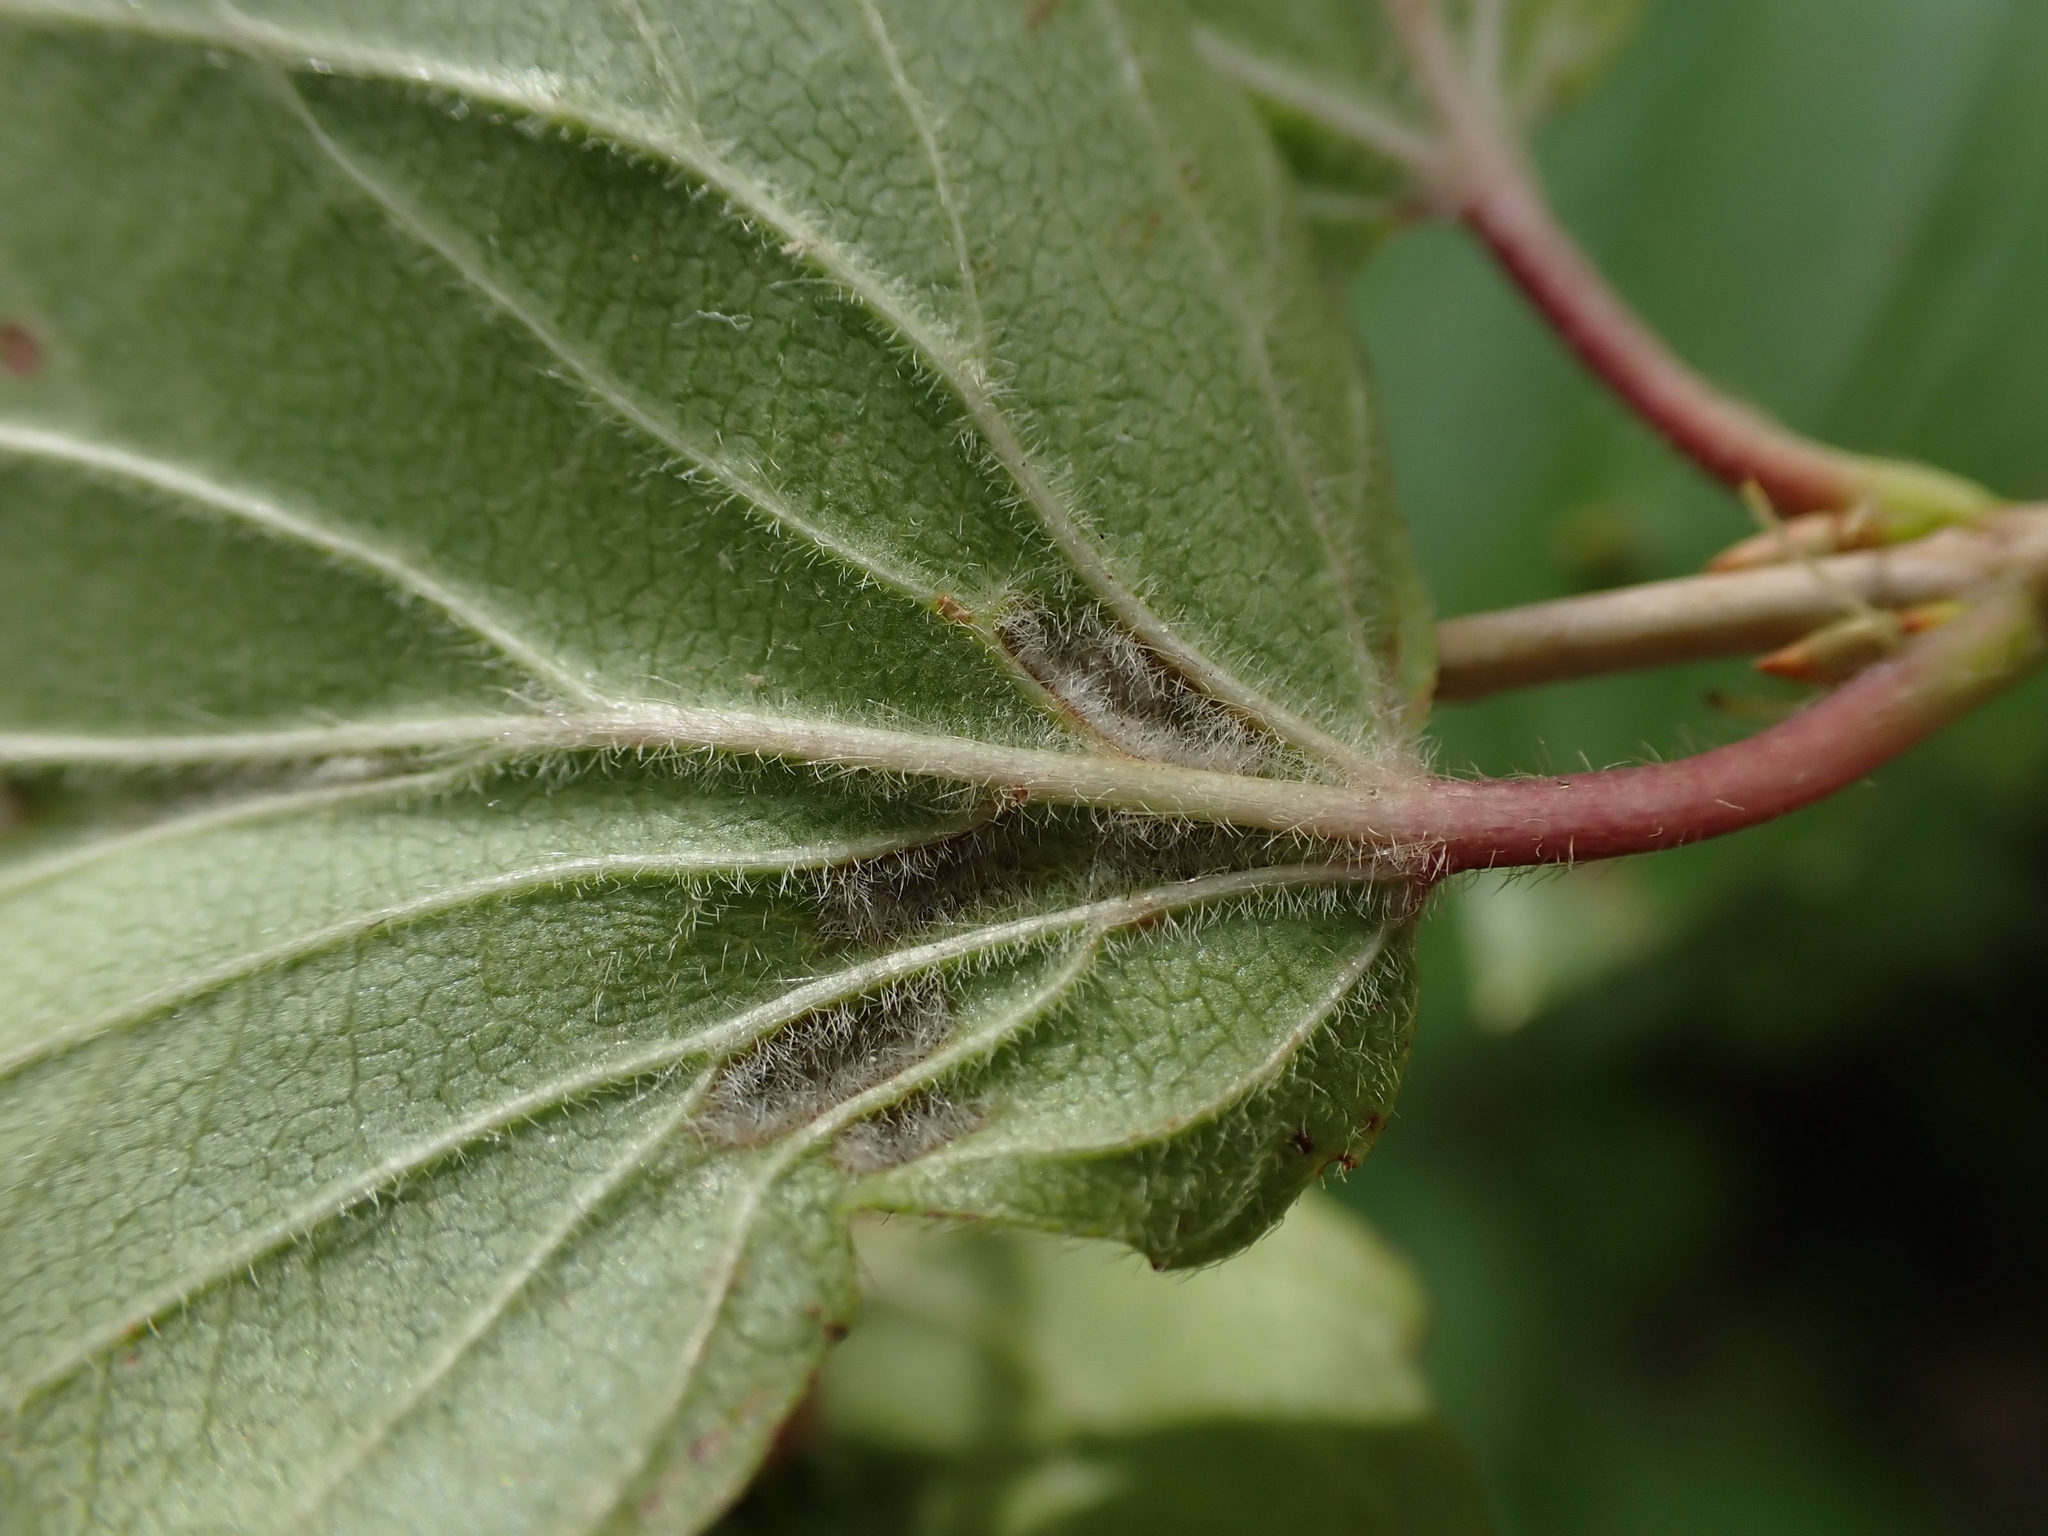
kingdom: Animalia
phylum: Arthropoda
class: Arachnida
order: Trombidiformes
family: Eriophyidae
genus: Eriophyes
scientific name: Eriophyes
